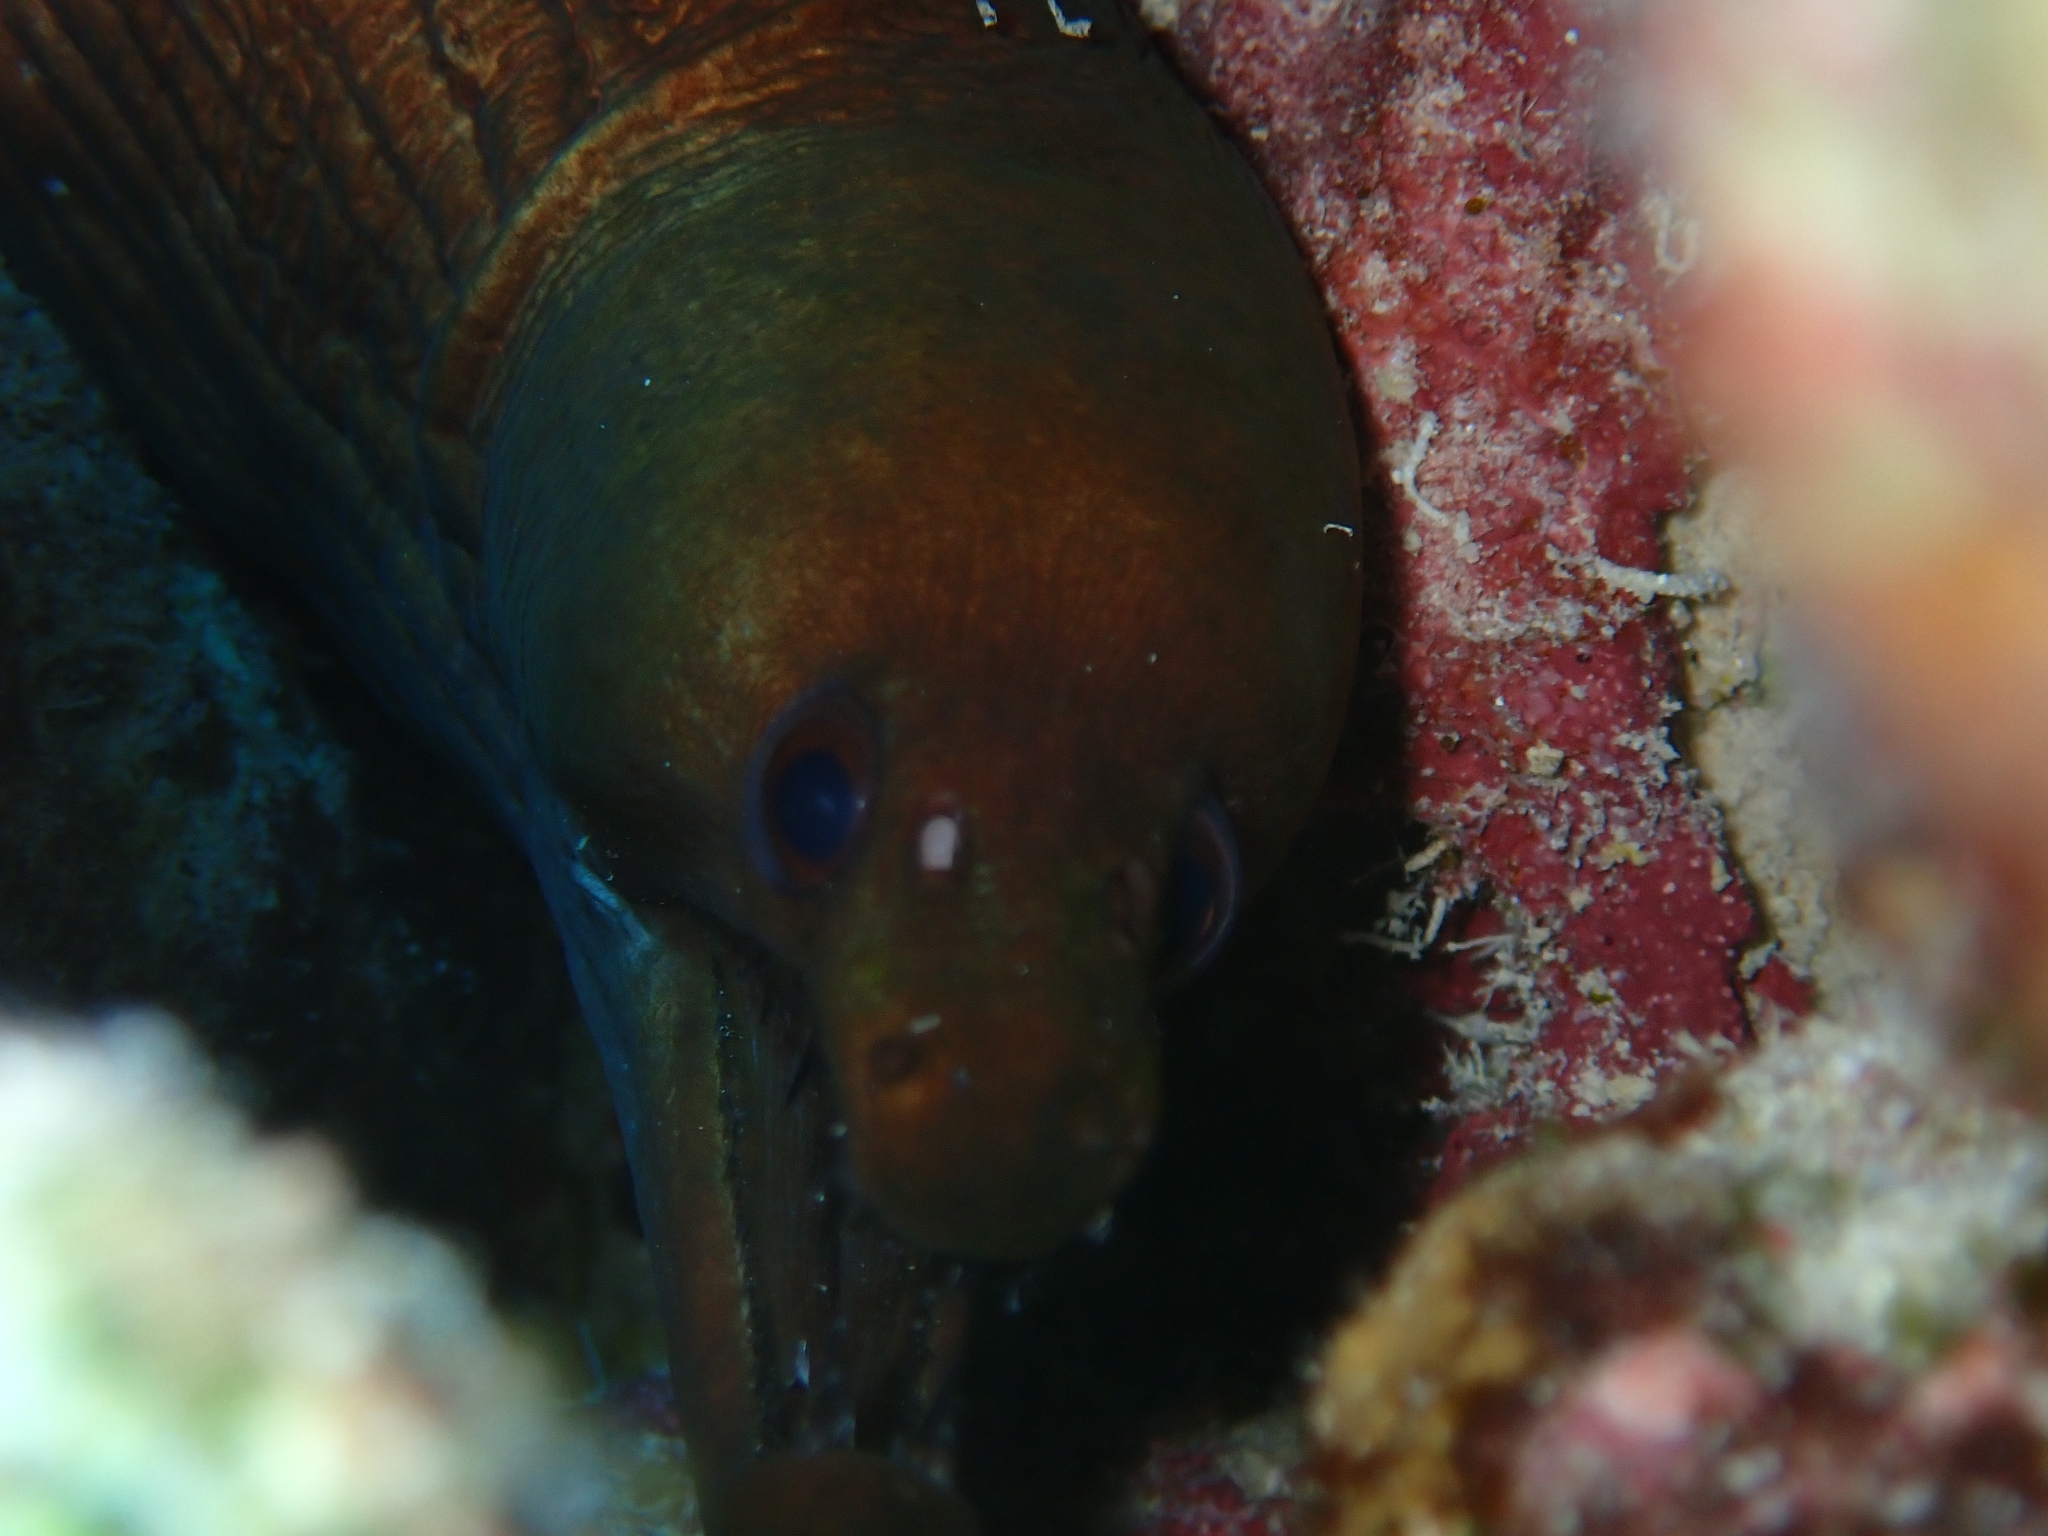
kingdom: Animalia
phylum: Chordata
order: Anguilliformes
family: Muraenidae
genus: Gymnothorax
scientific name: Gymnothorax vicinus
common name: Purplemouth moray
